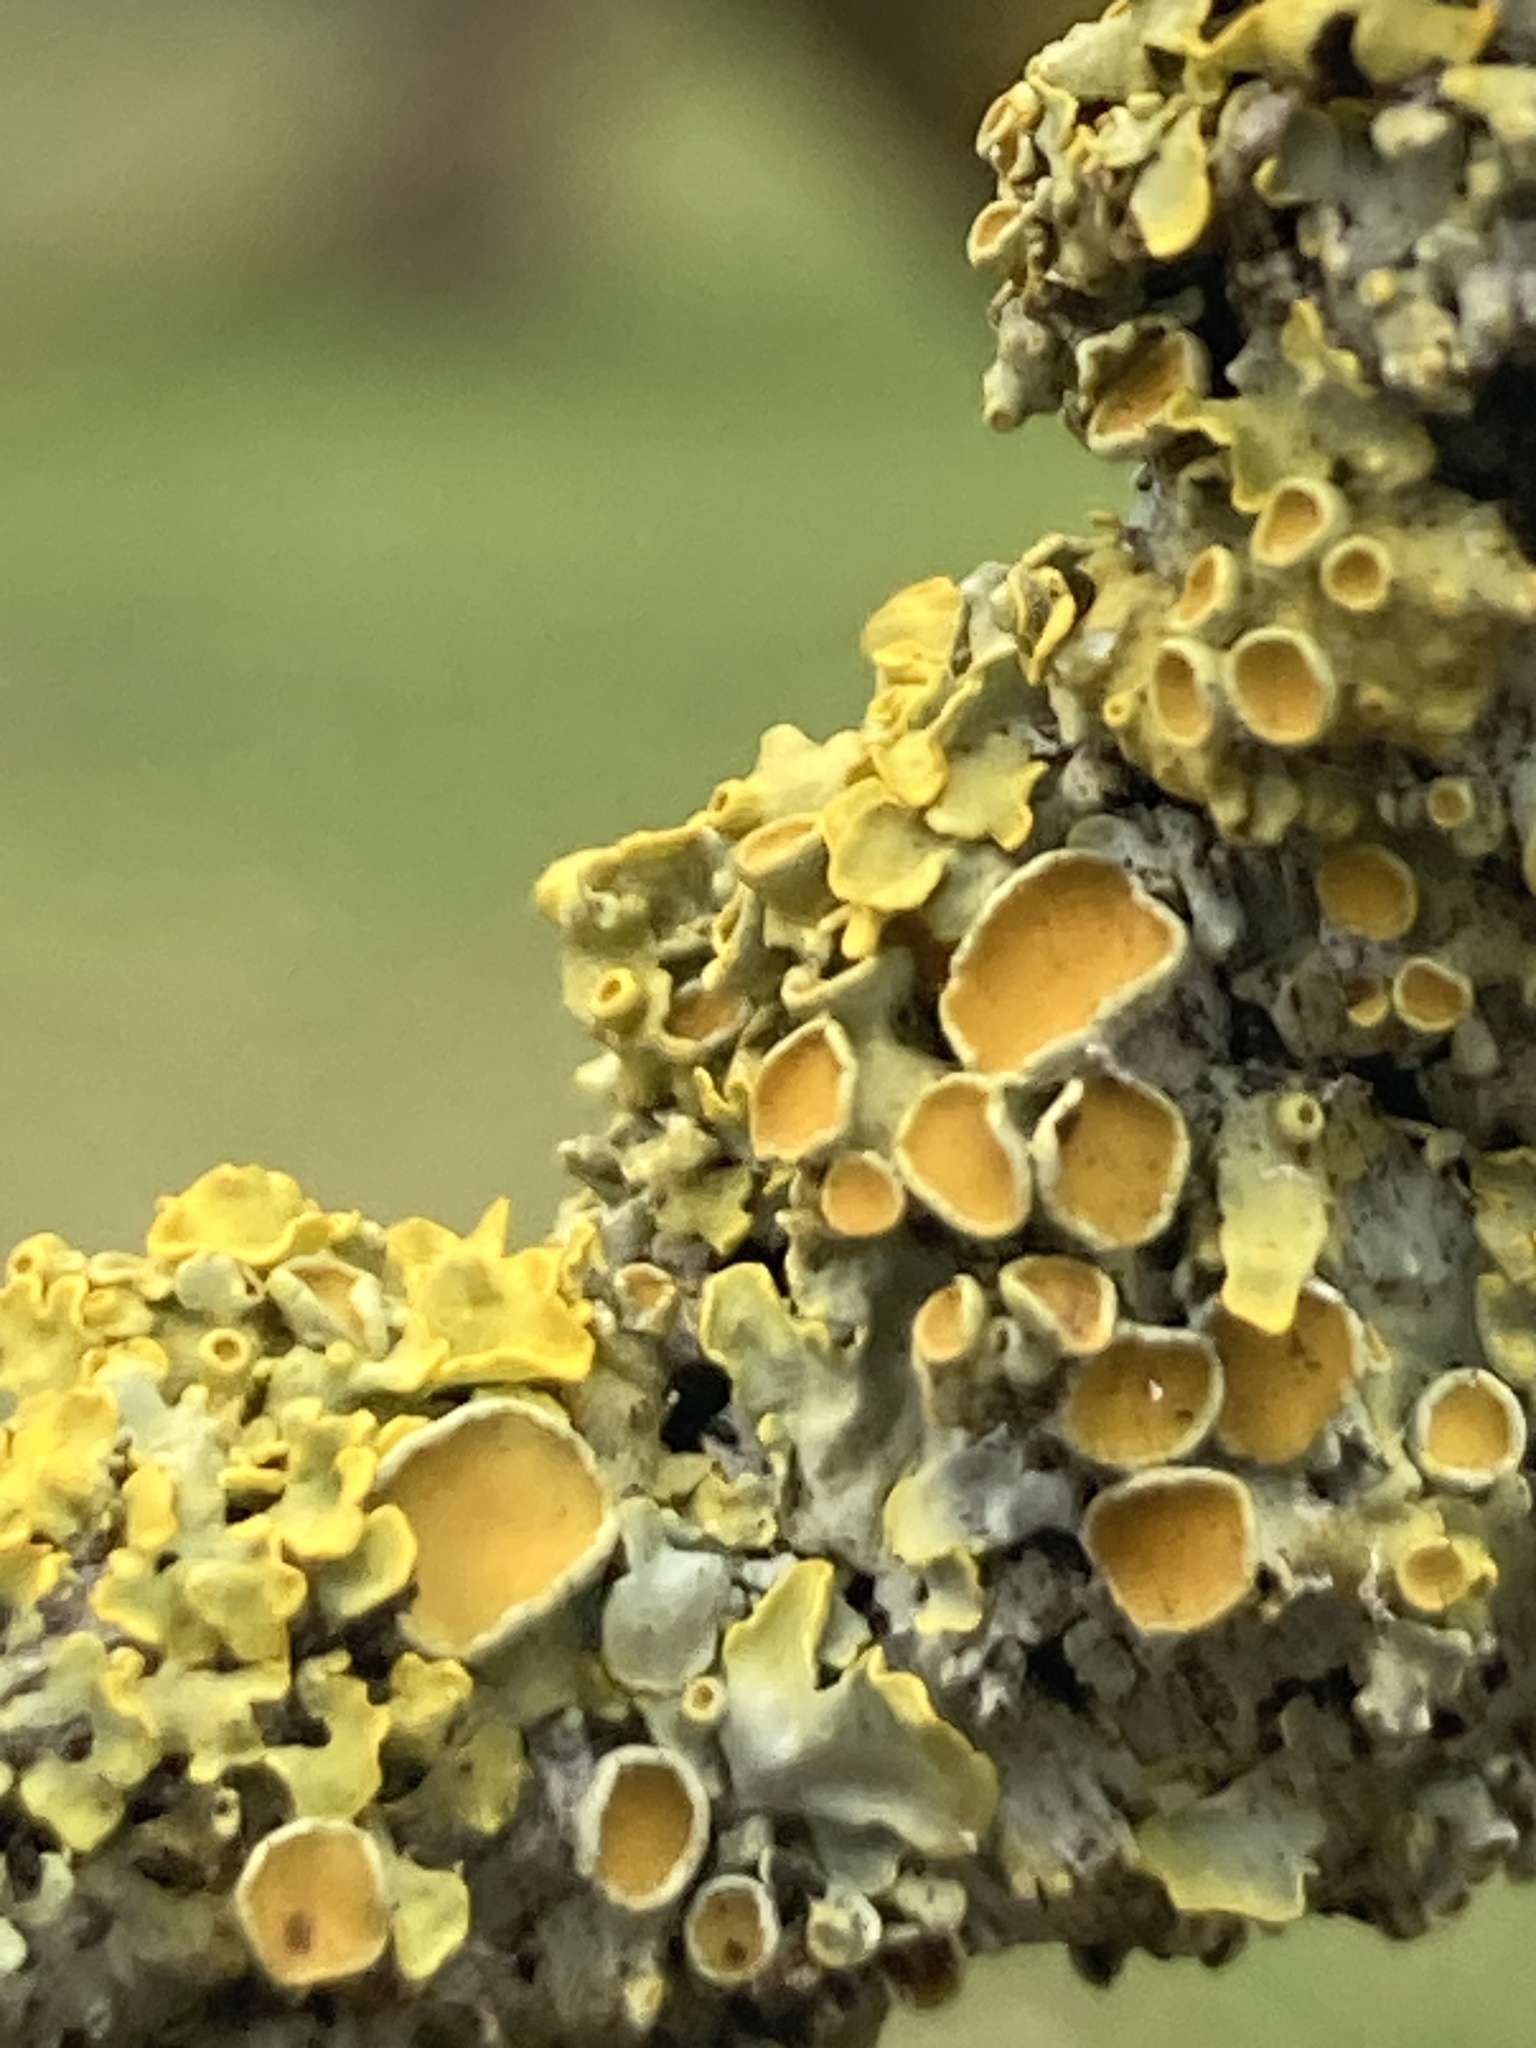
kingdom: Fungi
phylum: Ascomycota
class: Lecanoromycetes
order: Teloschistales
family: Teloschistaceae
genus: Xanthoria
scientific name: Xanthoria parietina
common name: Common orange lichen
